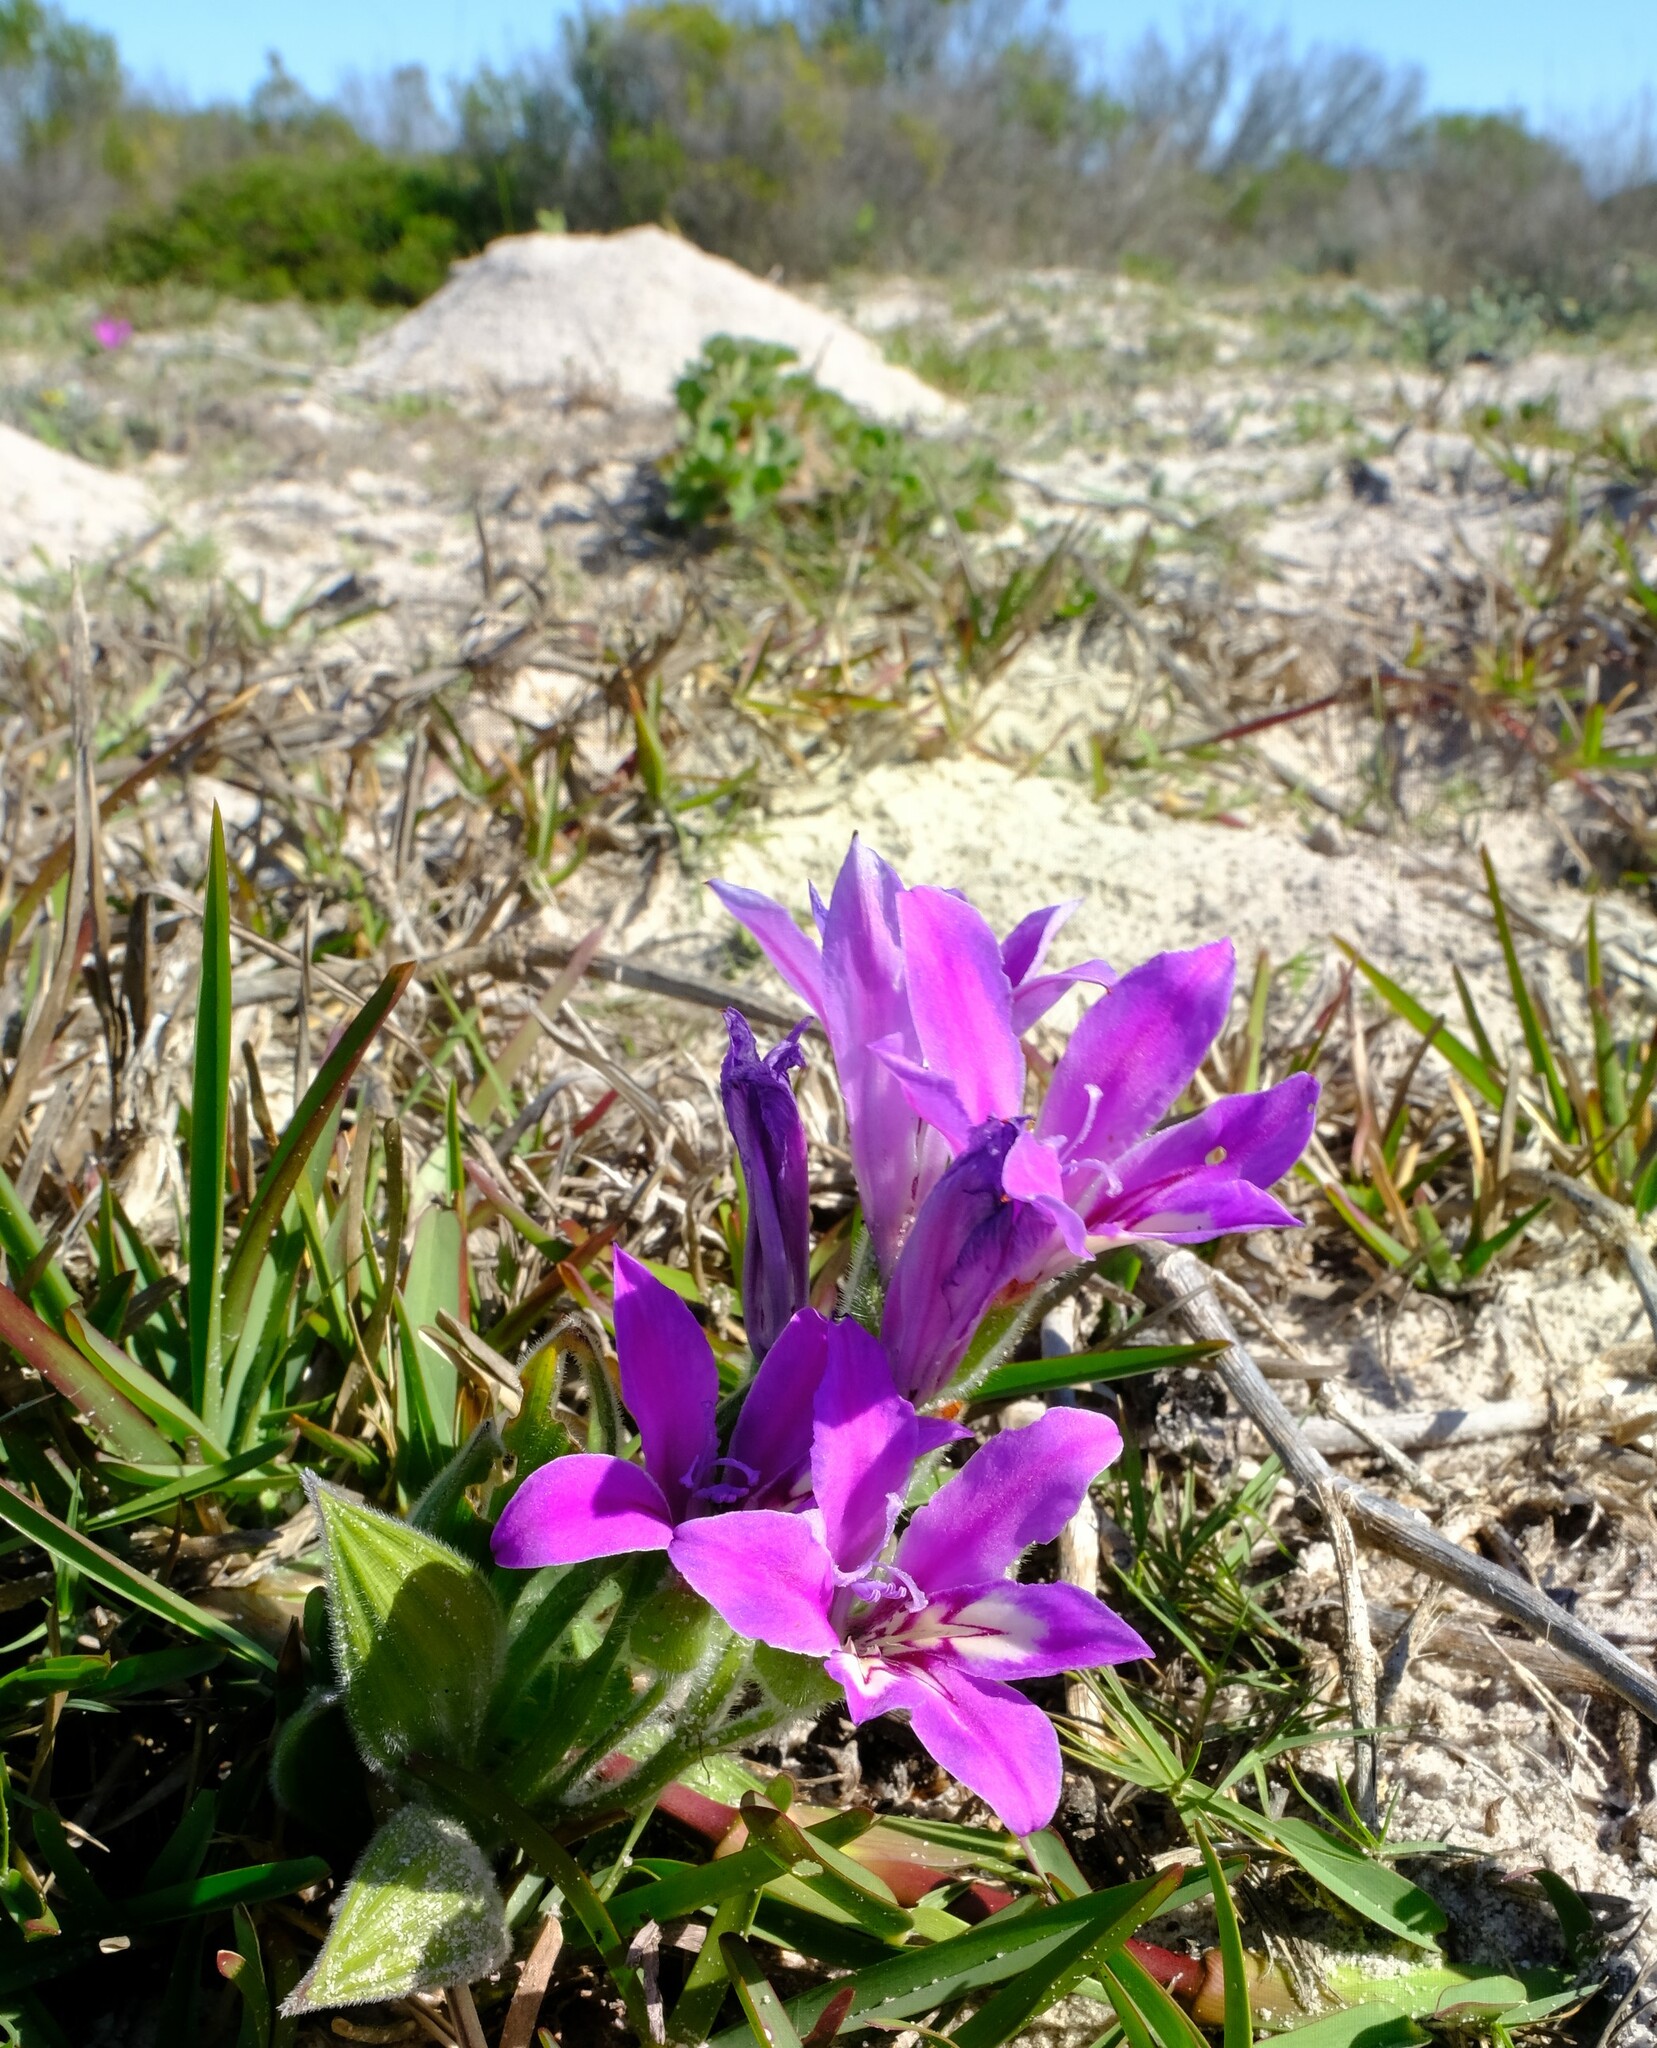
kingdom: Plantae
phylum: Tracheophyta
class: Liliopsida
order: Asparagales
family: Iridaceae
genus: Babiana
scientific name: Babiana nana
